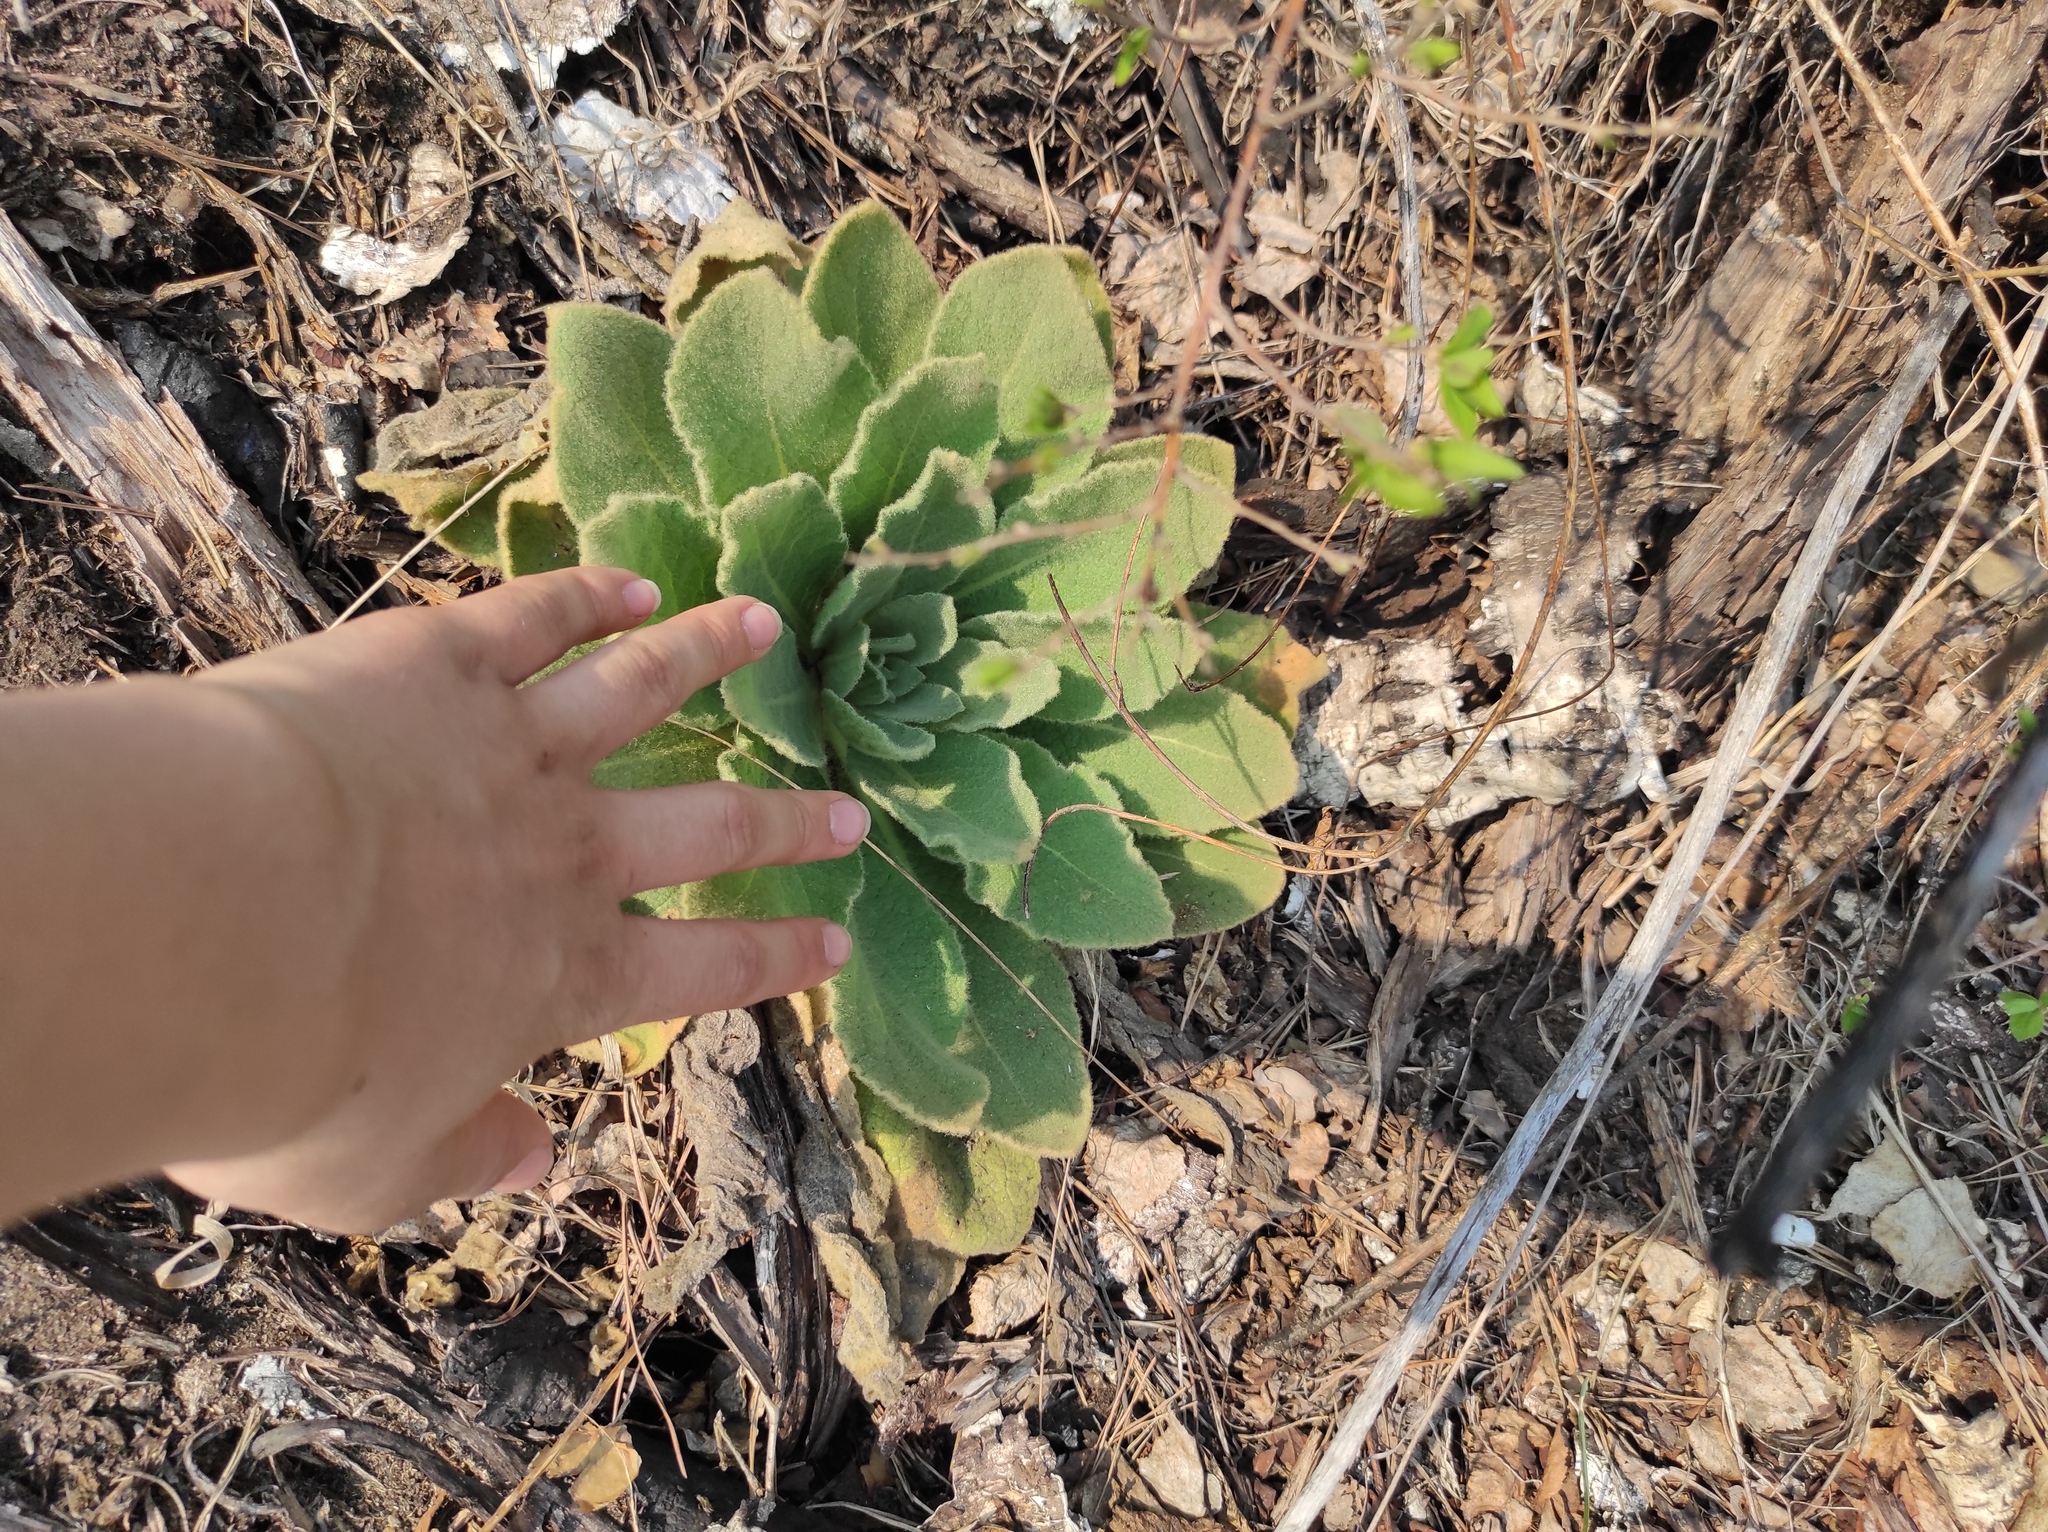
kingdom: Plantae
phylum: Tracheophyta
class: Magnoliopsida
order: Lamiales
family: Scrophulariaceae
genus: Verbascum
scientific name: Verbascum thapsus
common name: Common mullein
